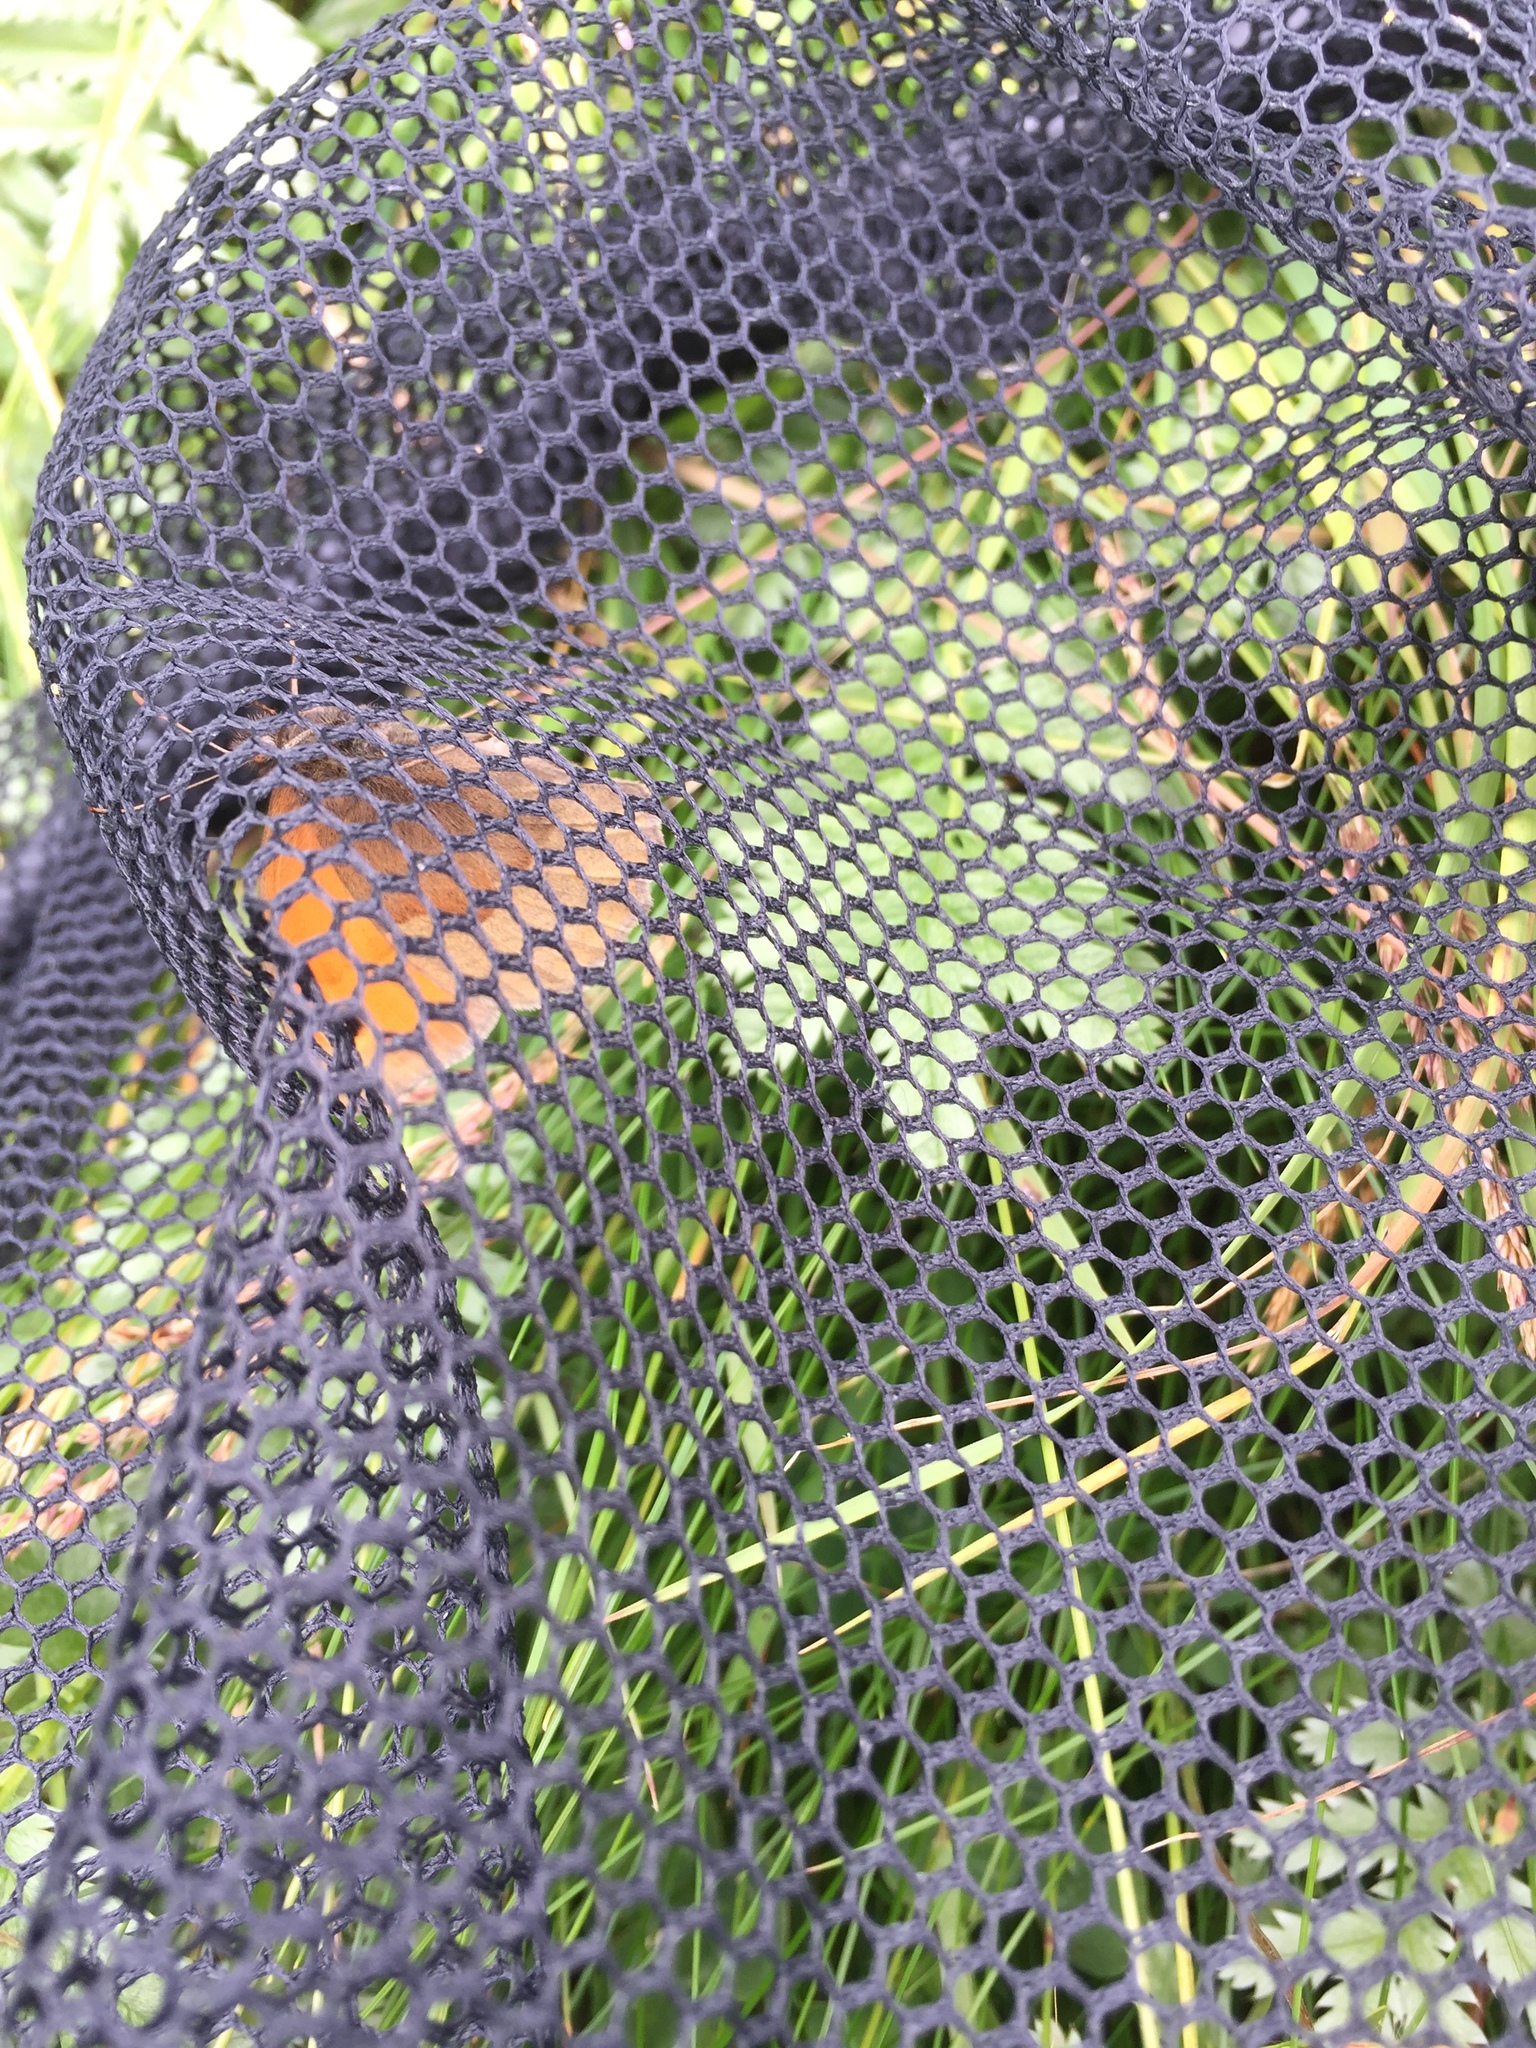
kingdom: Animalia
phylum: Arthropoda
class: Insecta
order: Lepidoptera
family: Nymphalidae
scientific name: Nymphalidae
